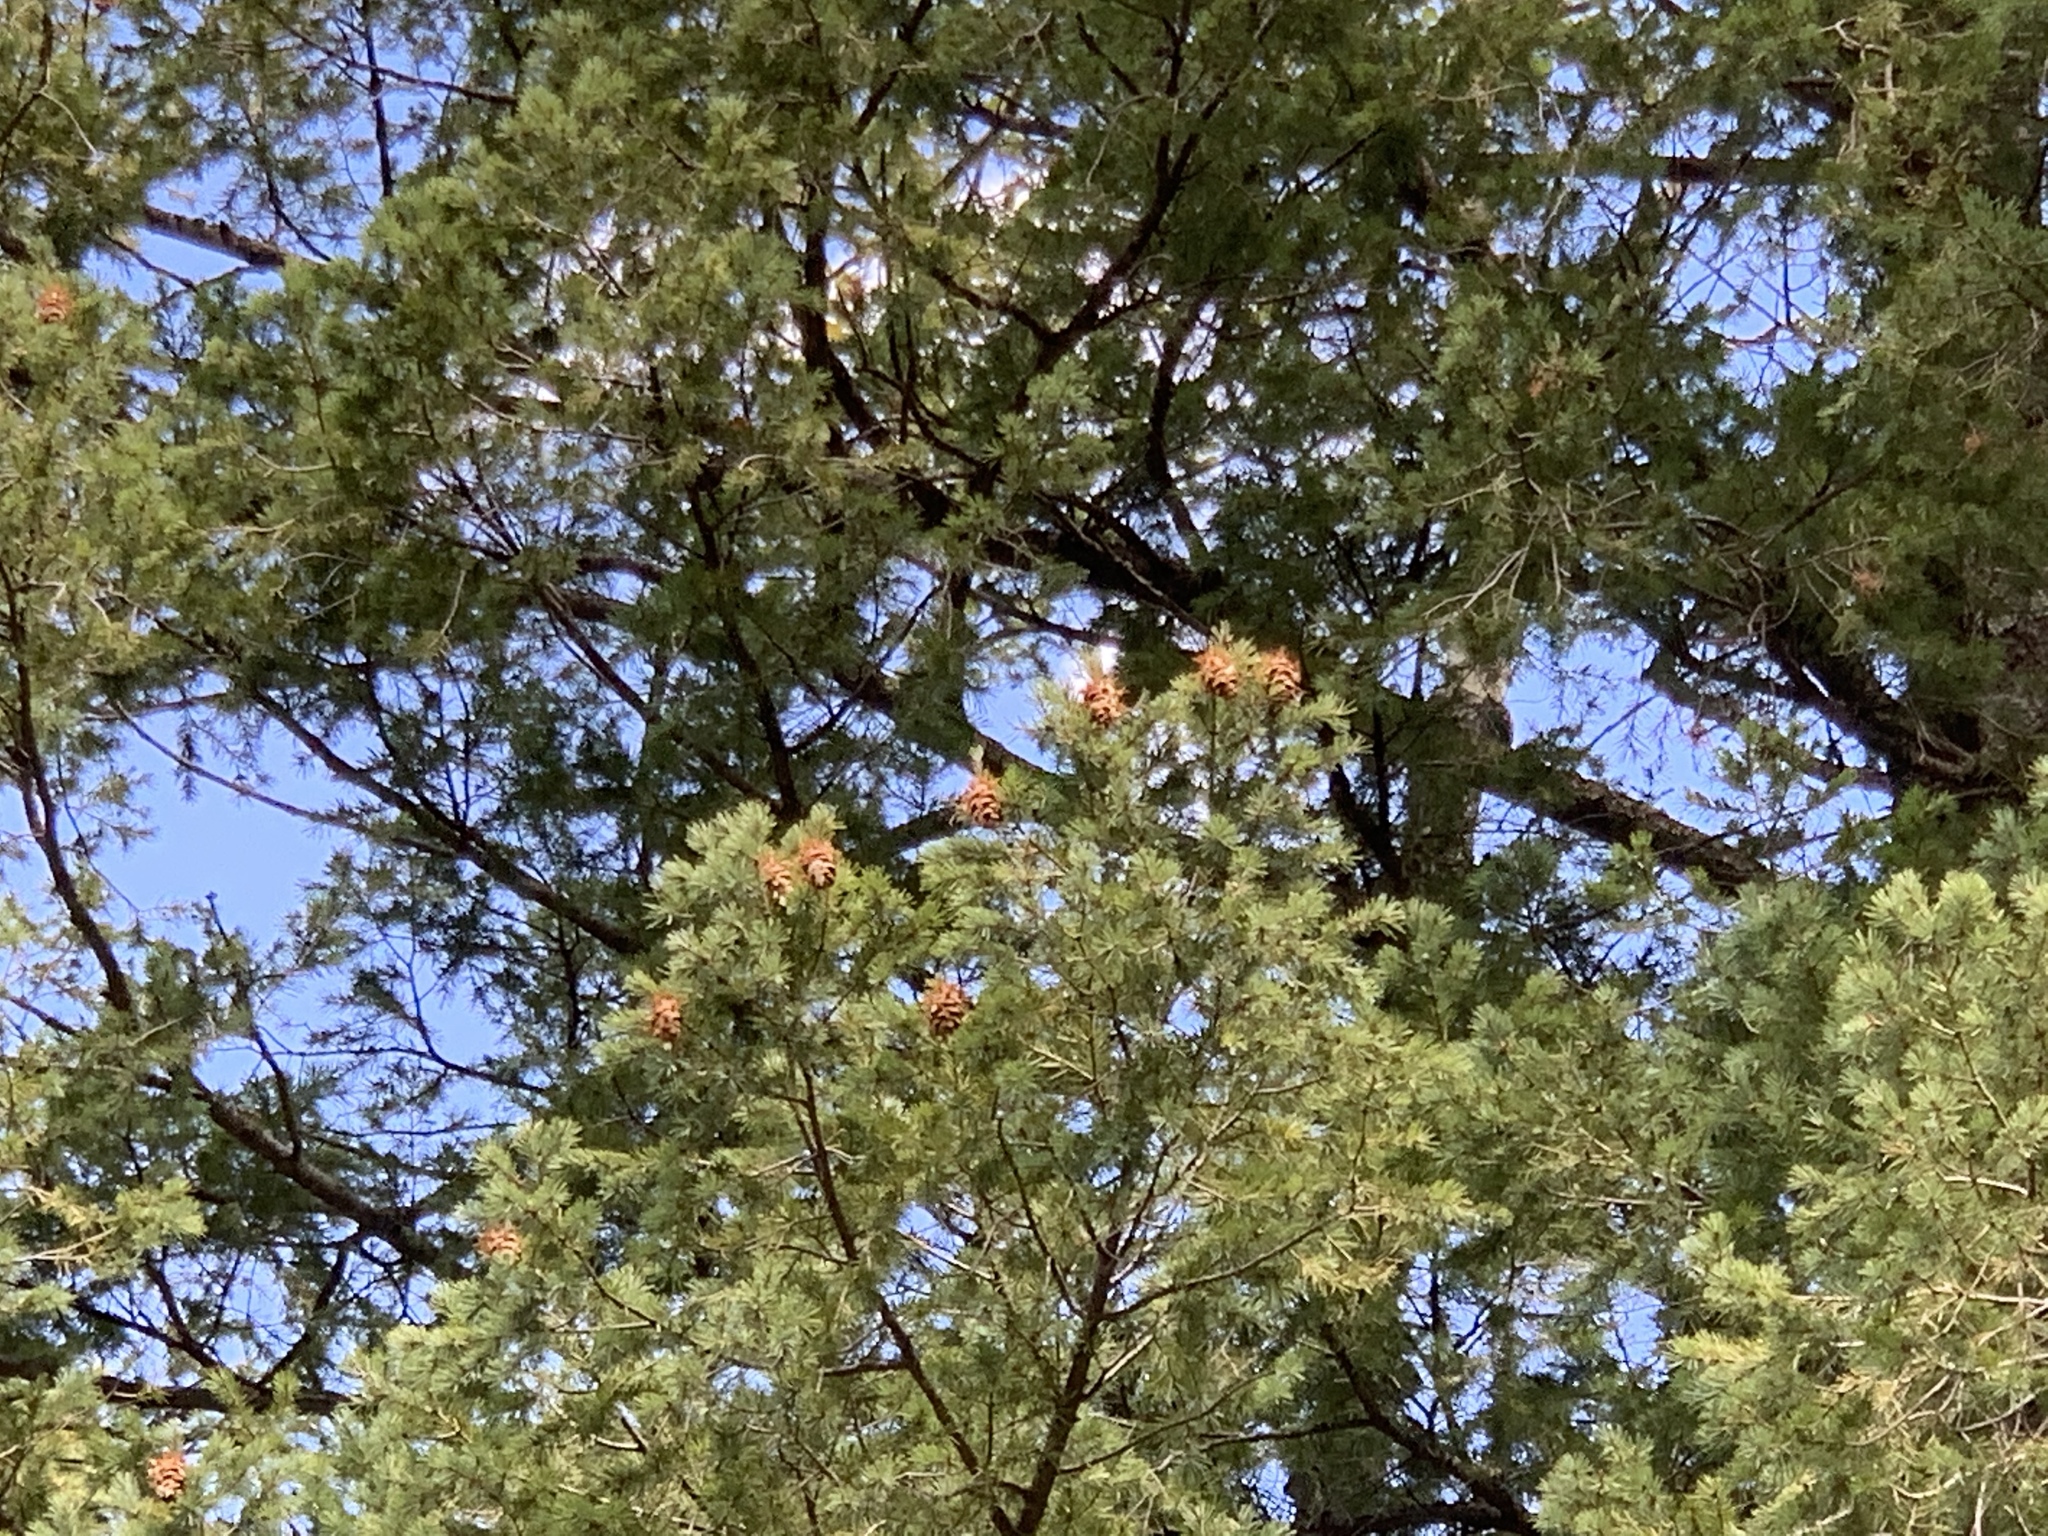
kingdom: Plantae
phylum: Tracheophyta
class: Pinopsida
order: Pinales
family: Pinaceae
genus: Pseudotsuga
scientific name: Pseudotsuga menziesii
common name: Douglas fir
